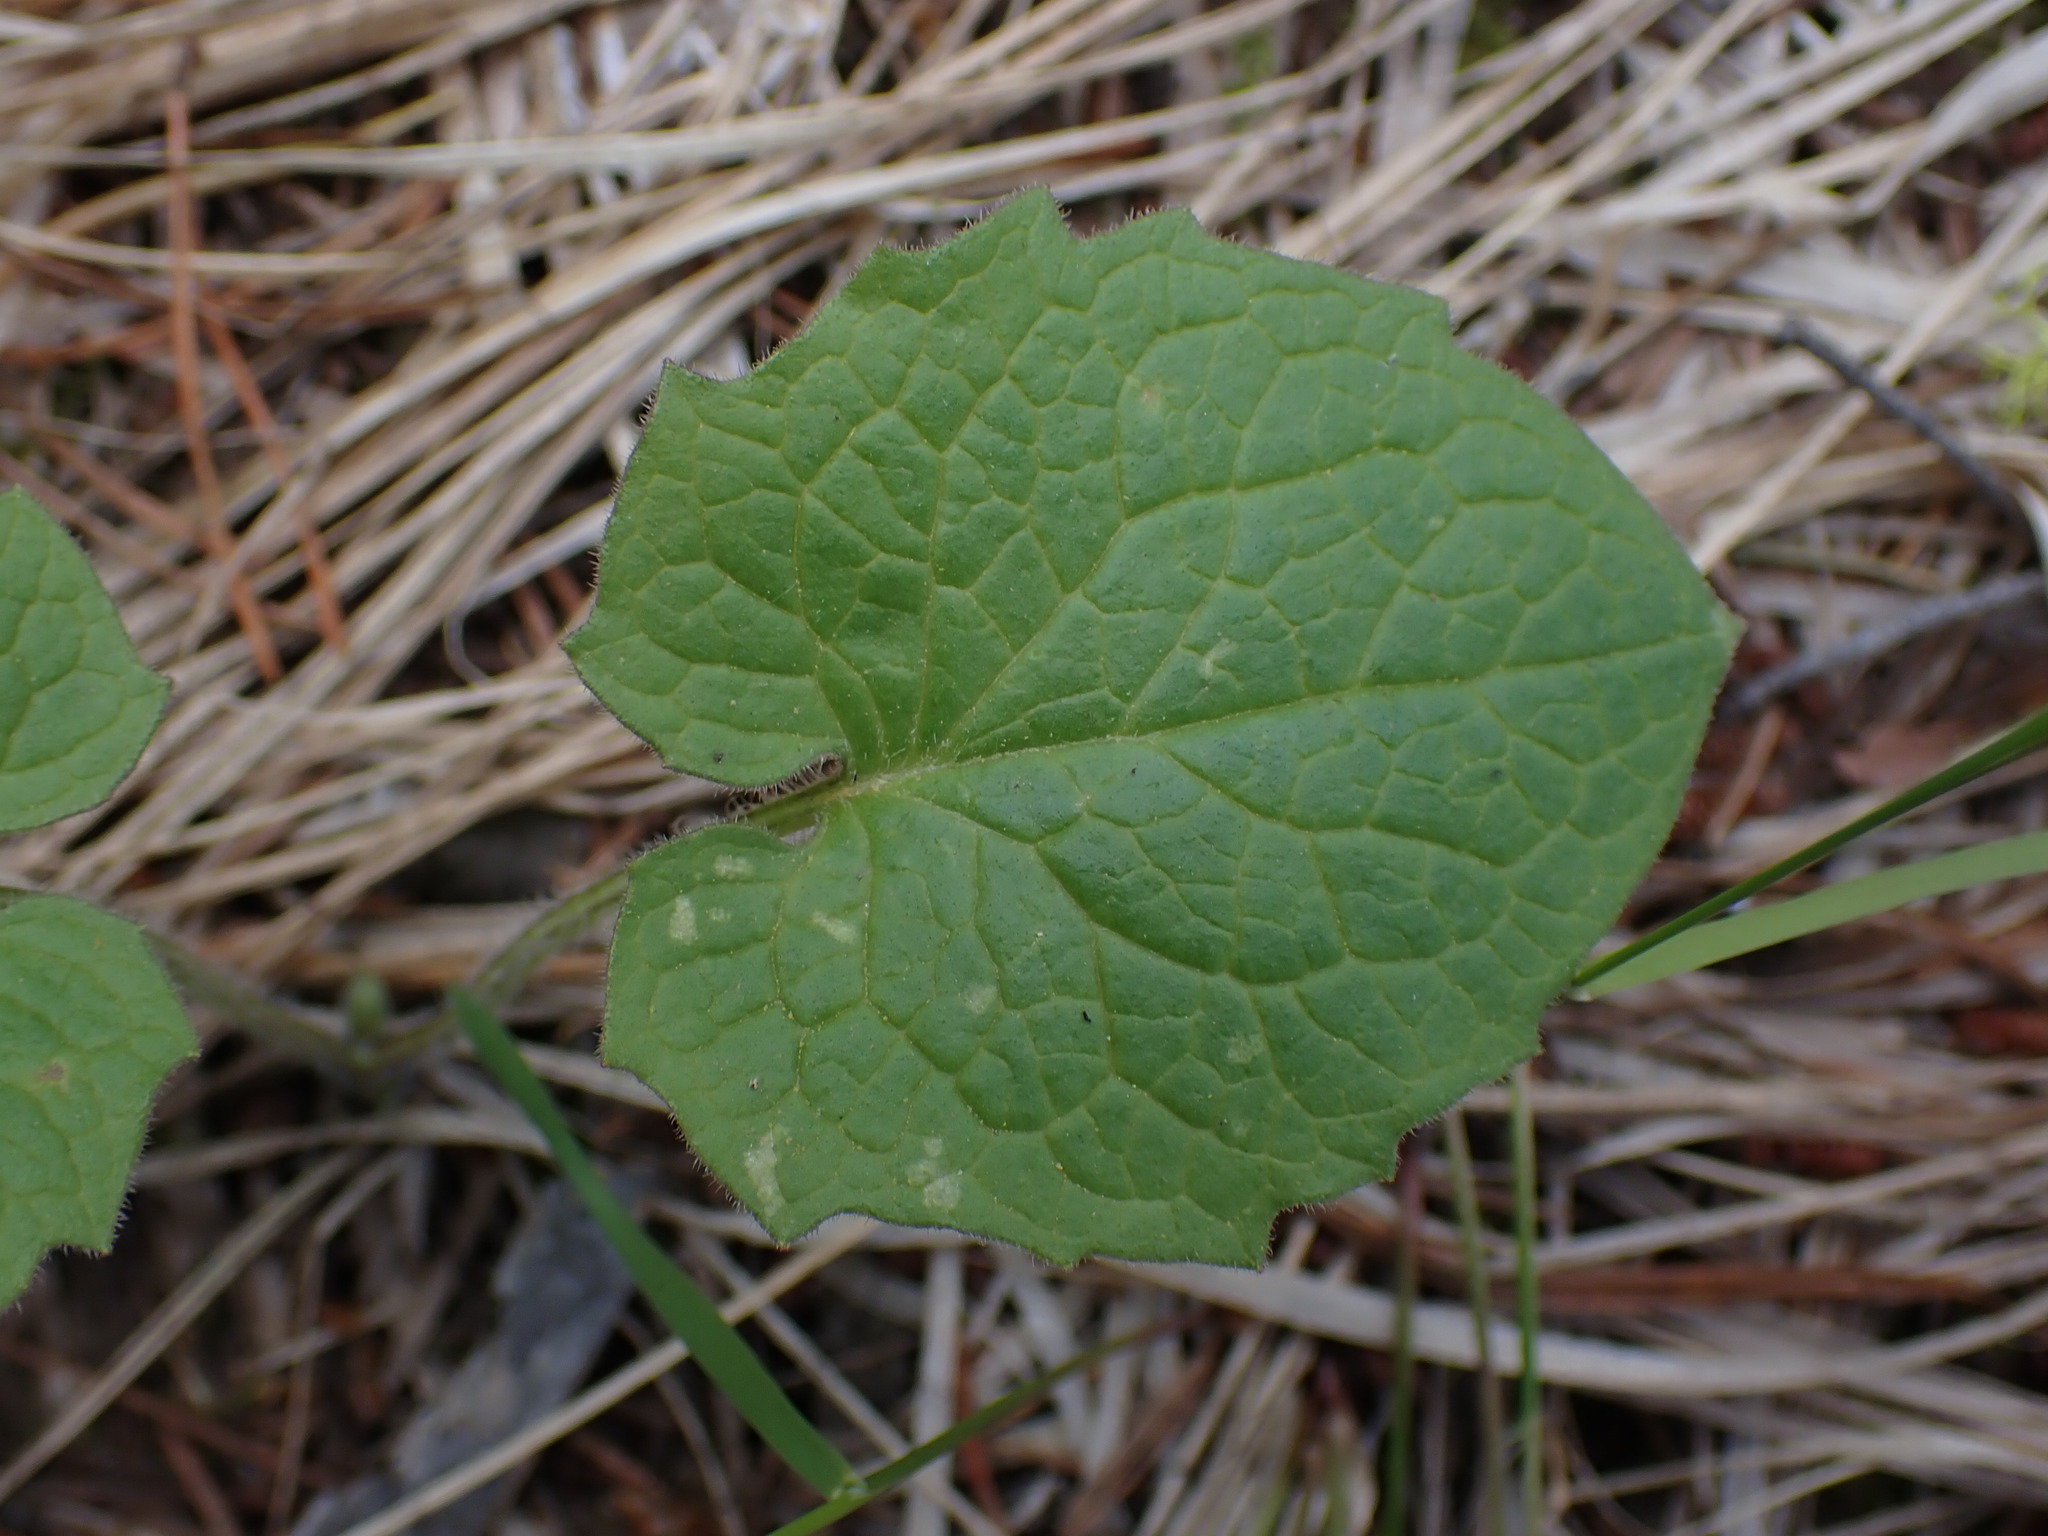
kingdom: Plantae
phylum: Tracheophyta
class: Magnoliopsida
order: Asterales
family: Asteraceae
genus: Arnica
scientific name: Arnica cordifolia
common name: Heart-leaf arnica
